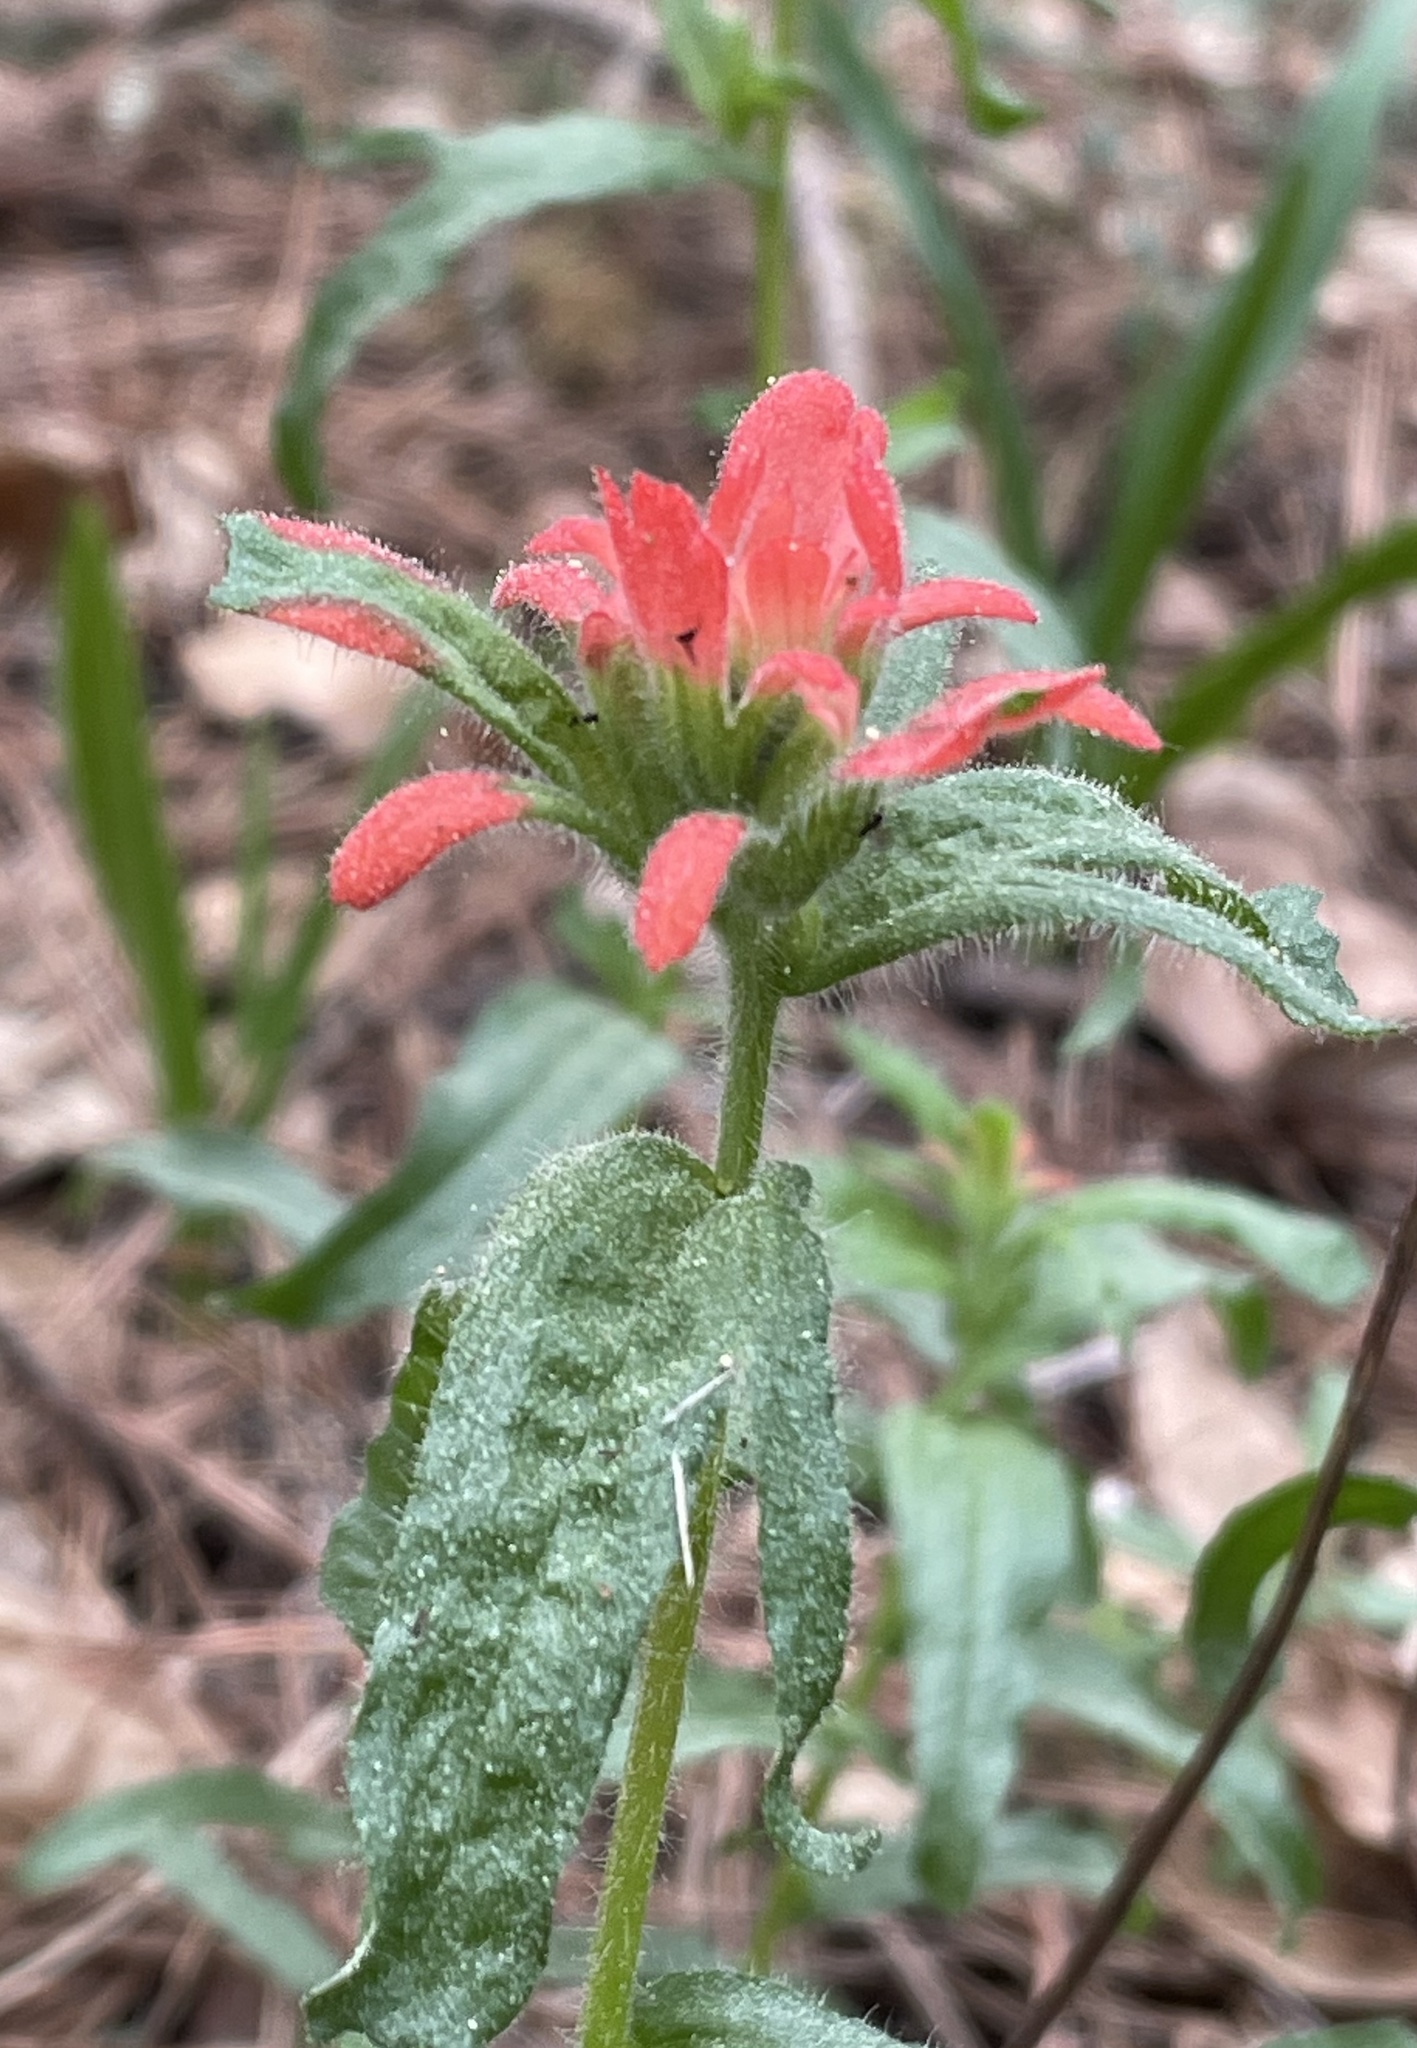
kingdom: Plantae
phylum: Tracheophyta
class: Magnoliopsida
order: Lamiales
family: Orobanchaceae
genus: Castilleja
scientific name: Castilleja affinis
